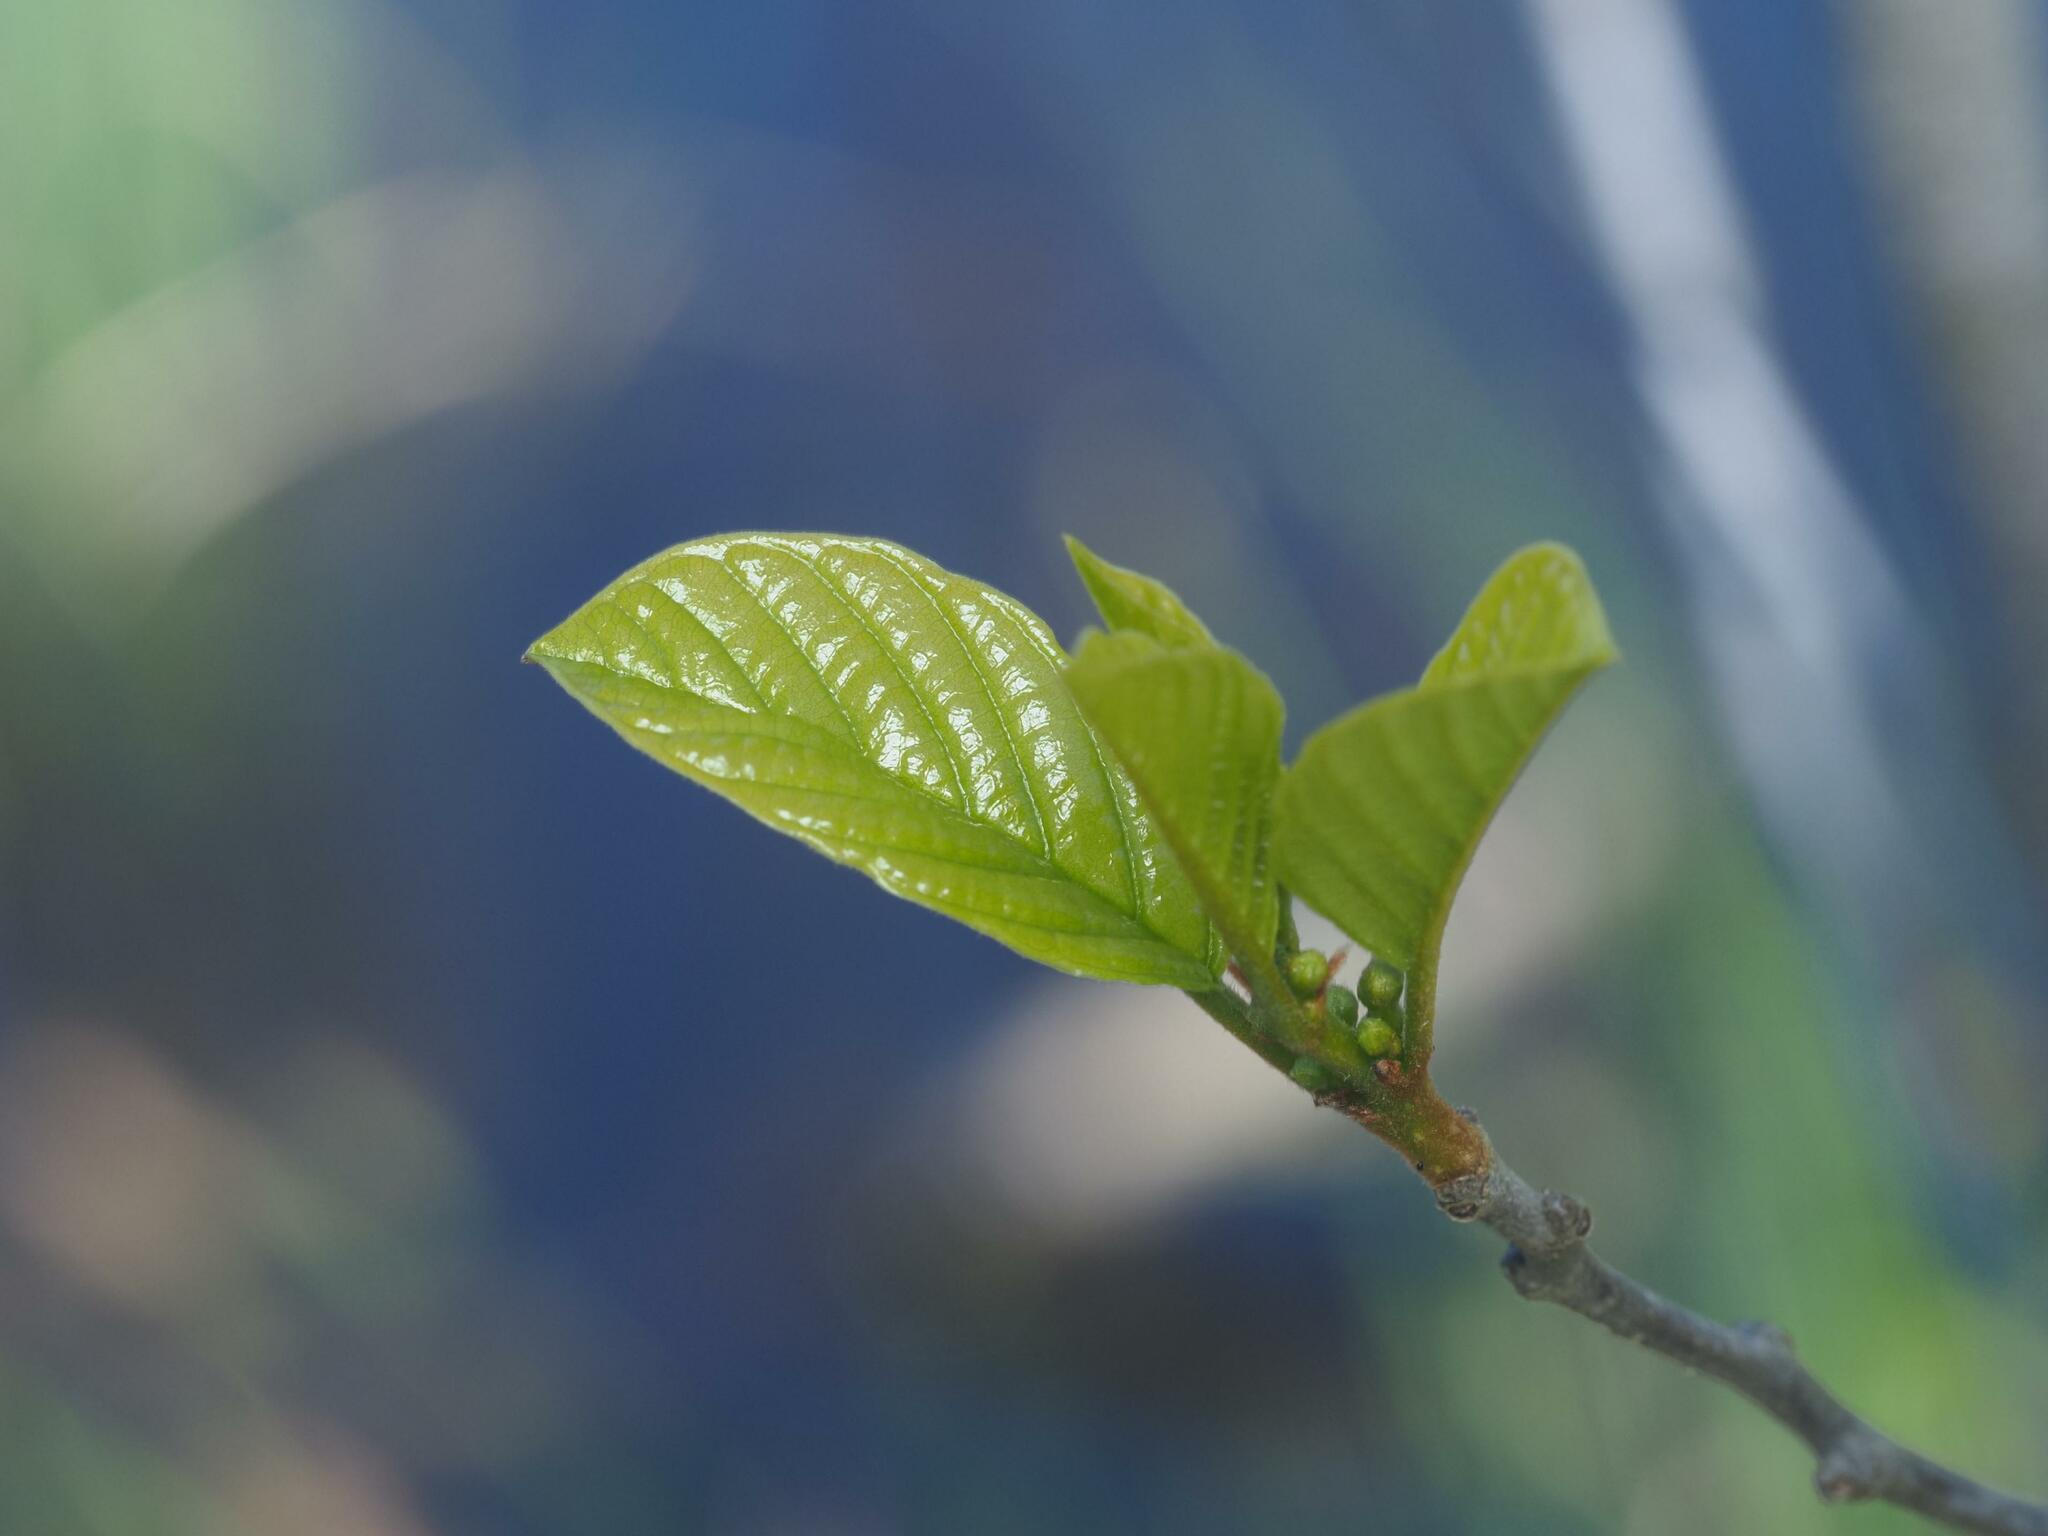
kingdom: Plantae
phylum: Tracheophyta
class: Magnoliopsida
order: Rosales
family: Rhamnaceae
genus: Frangula
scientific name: Frangula alnus
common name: Alder buckthorn
